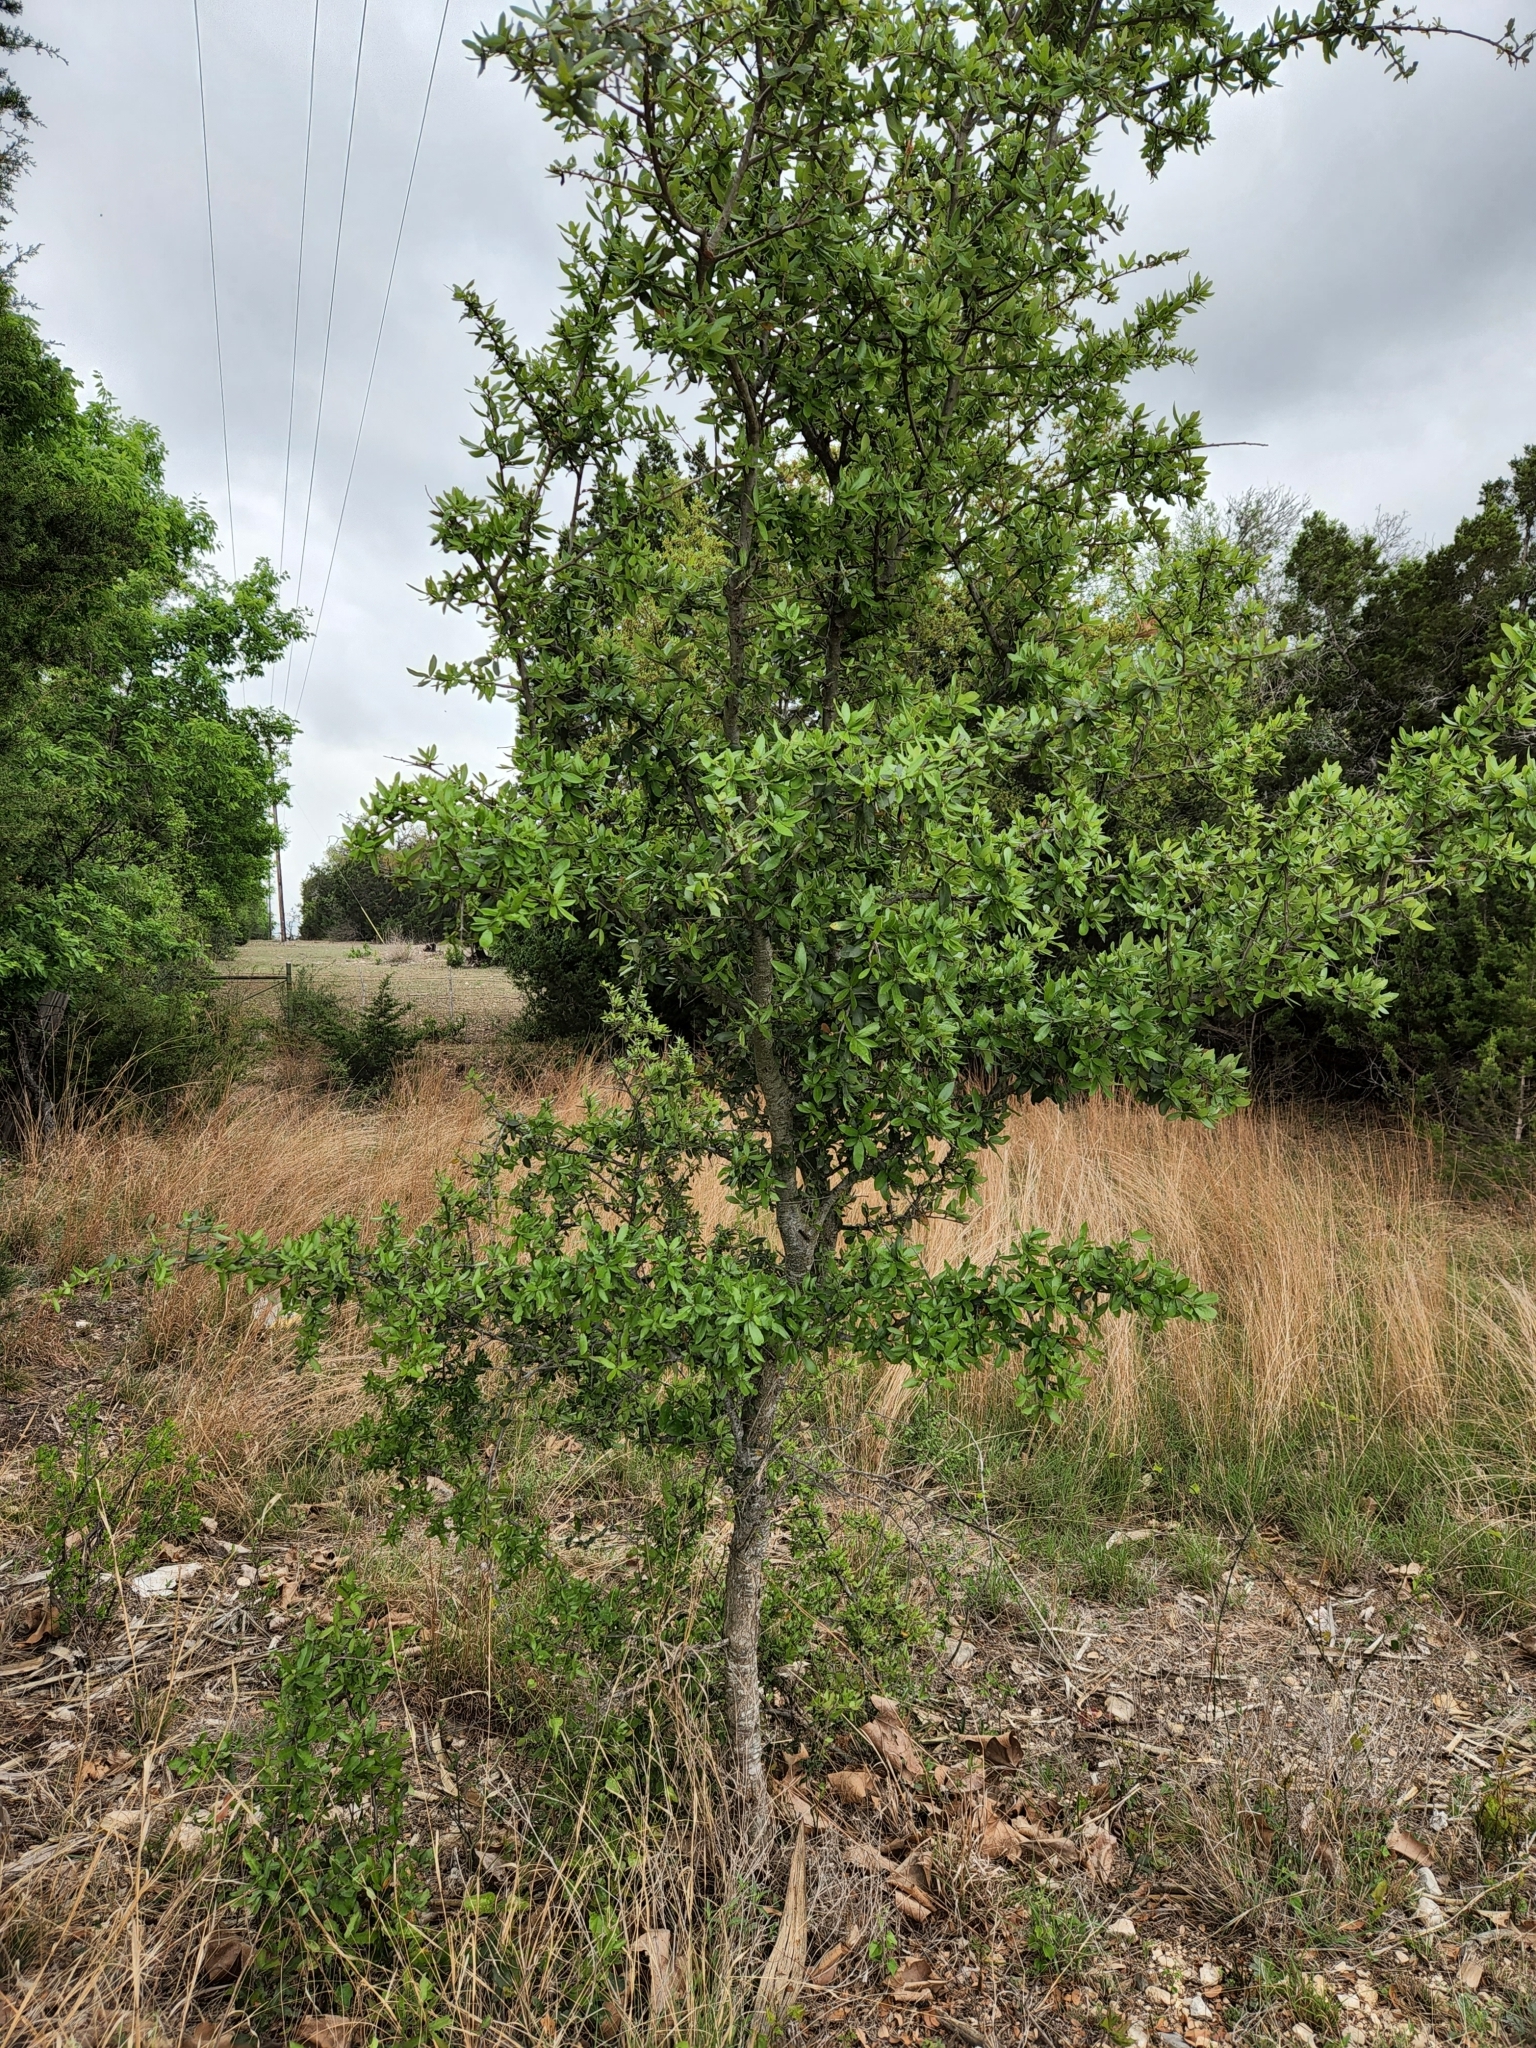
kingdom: Plantae
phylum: Tracheophyta
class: Magnoliopsida
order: Fagales
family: Fagaceae
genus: Quercus
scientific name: Quercus fusiformis
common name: Texas live oak
